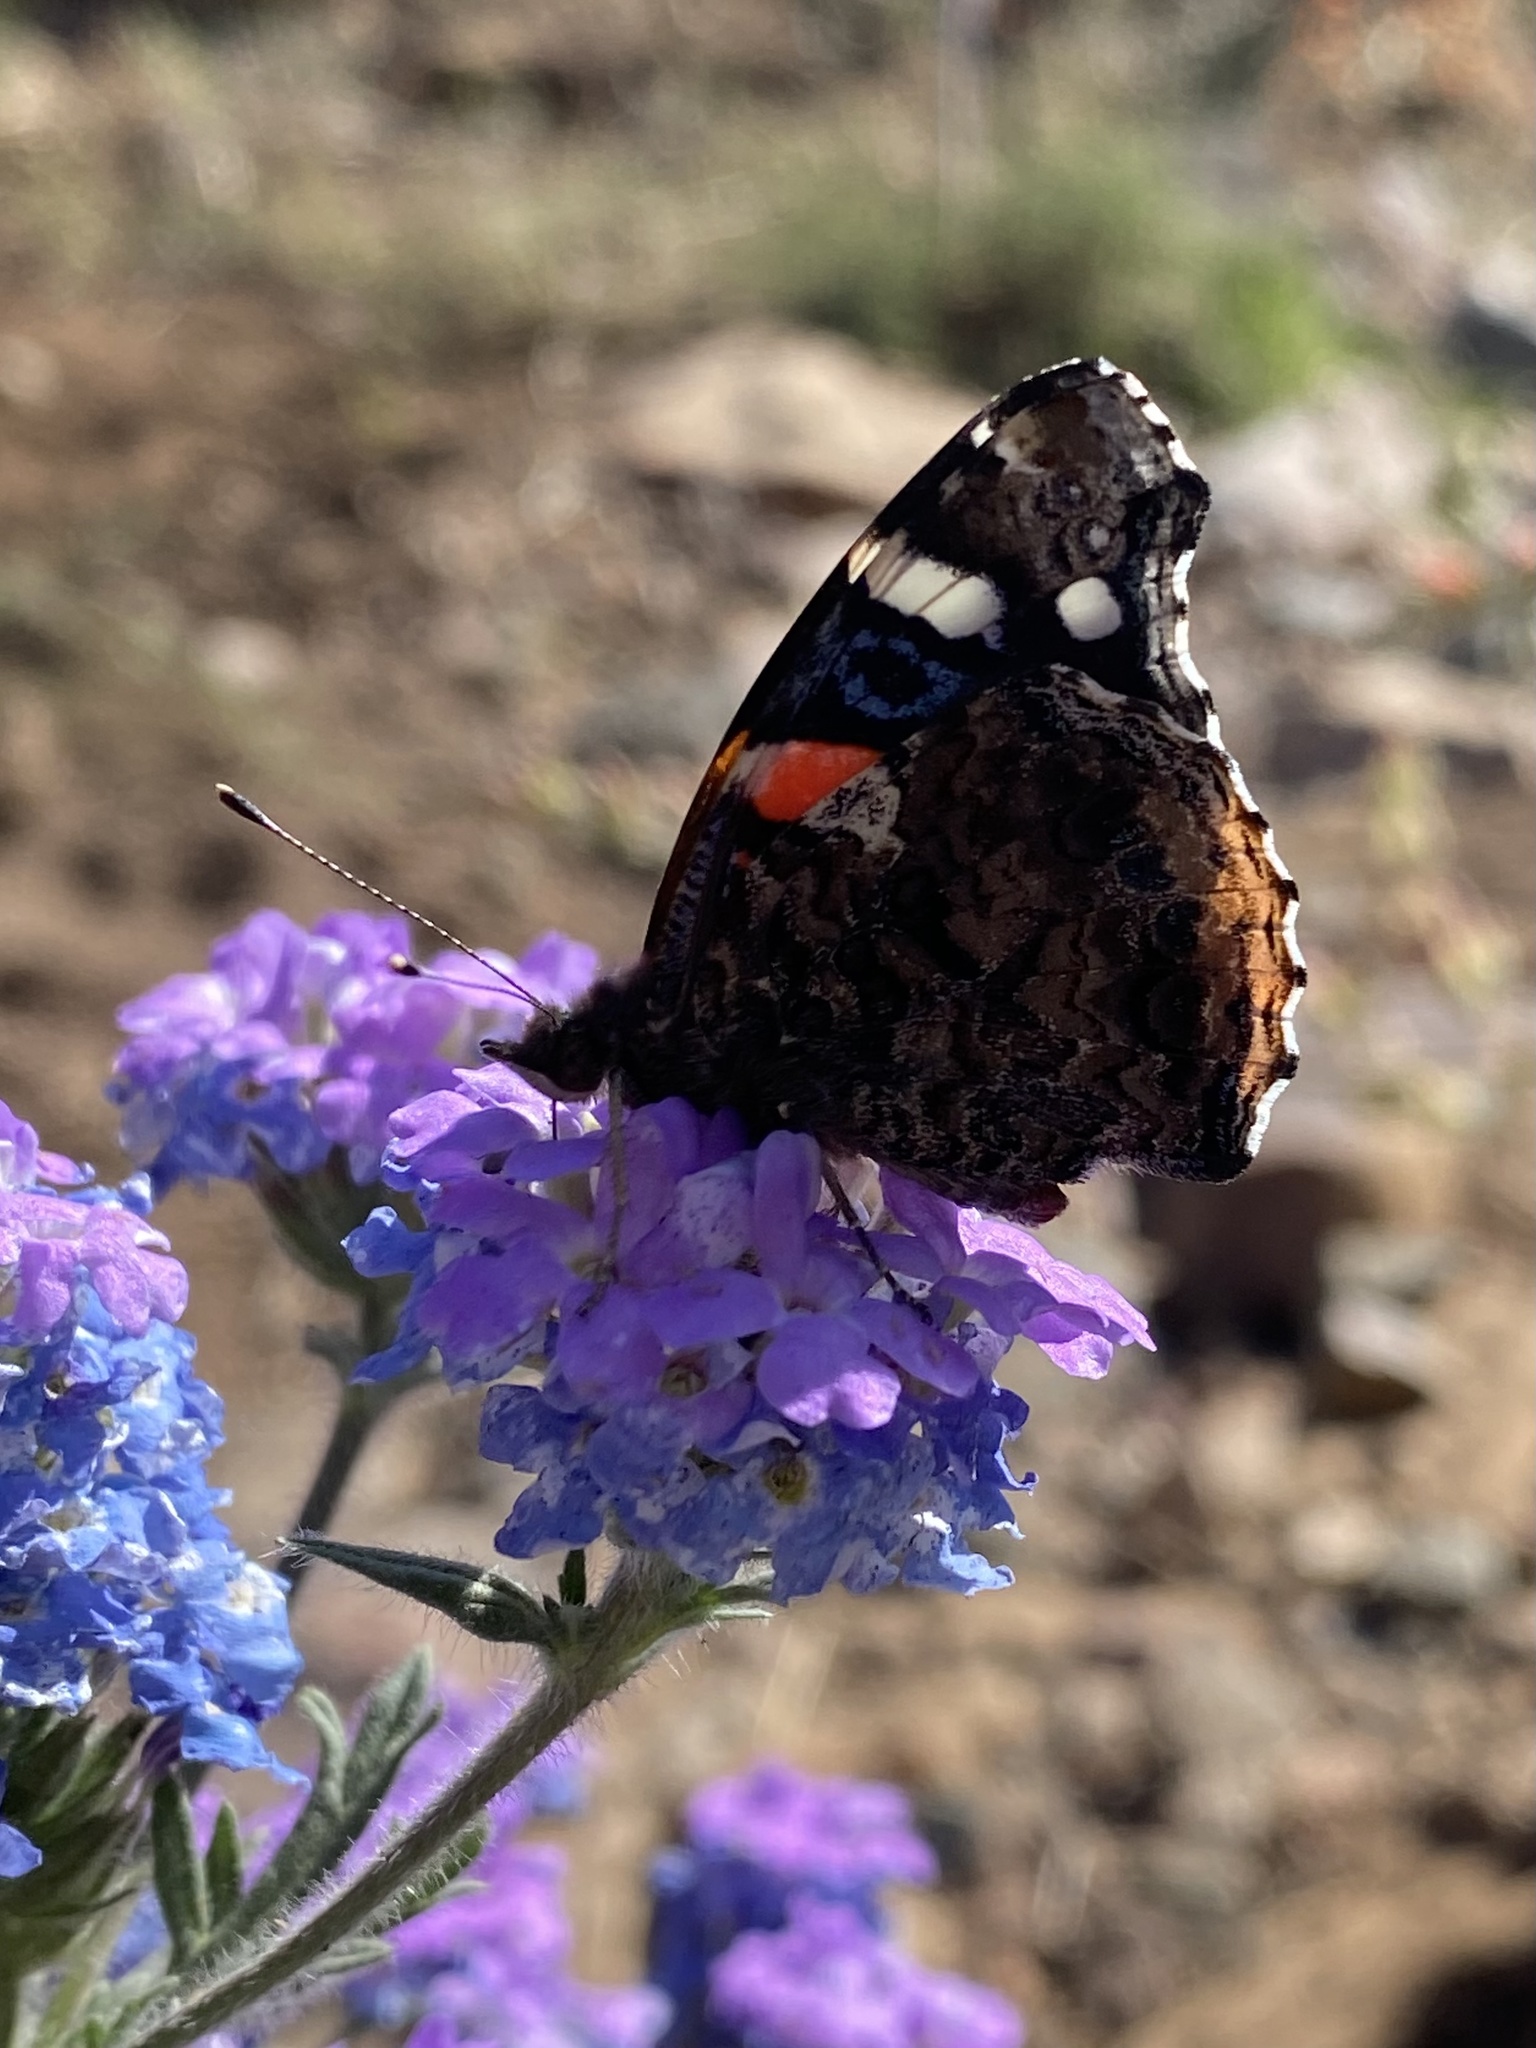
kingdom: Animalia
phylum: Arthropoda
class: Insecta
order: Lepidoptera
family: Nymphalidae
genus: Vanessa
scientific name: Vanessa atalanta
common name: Red admiral
